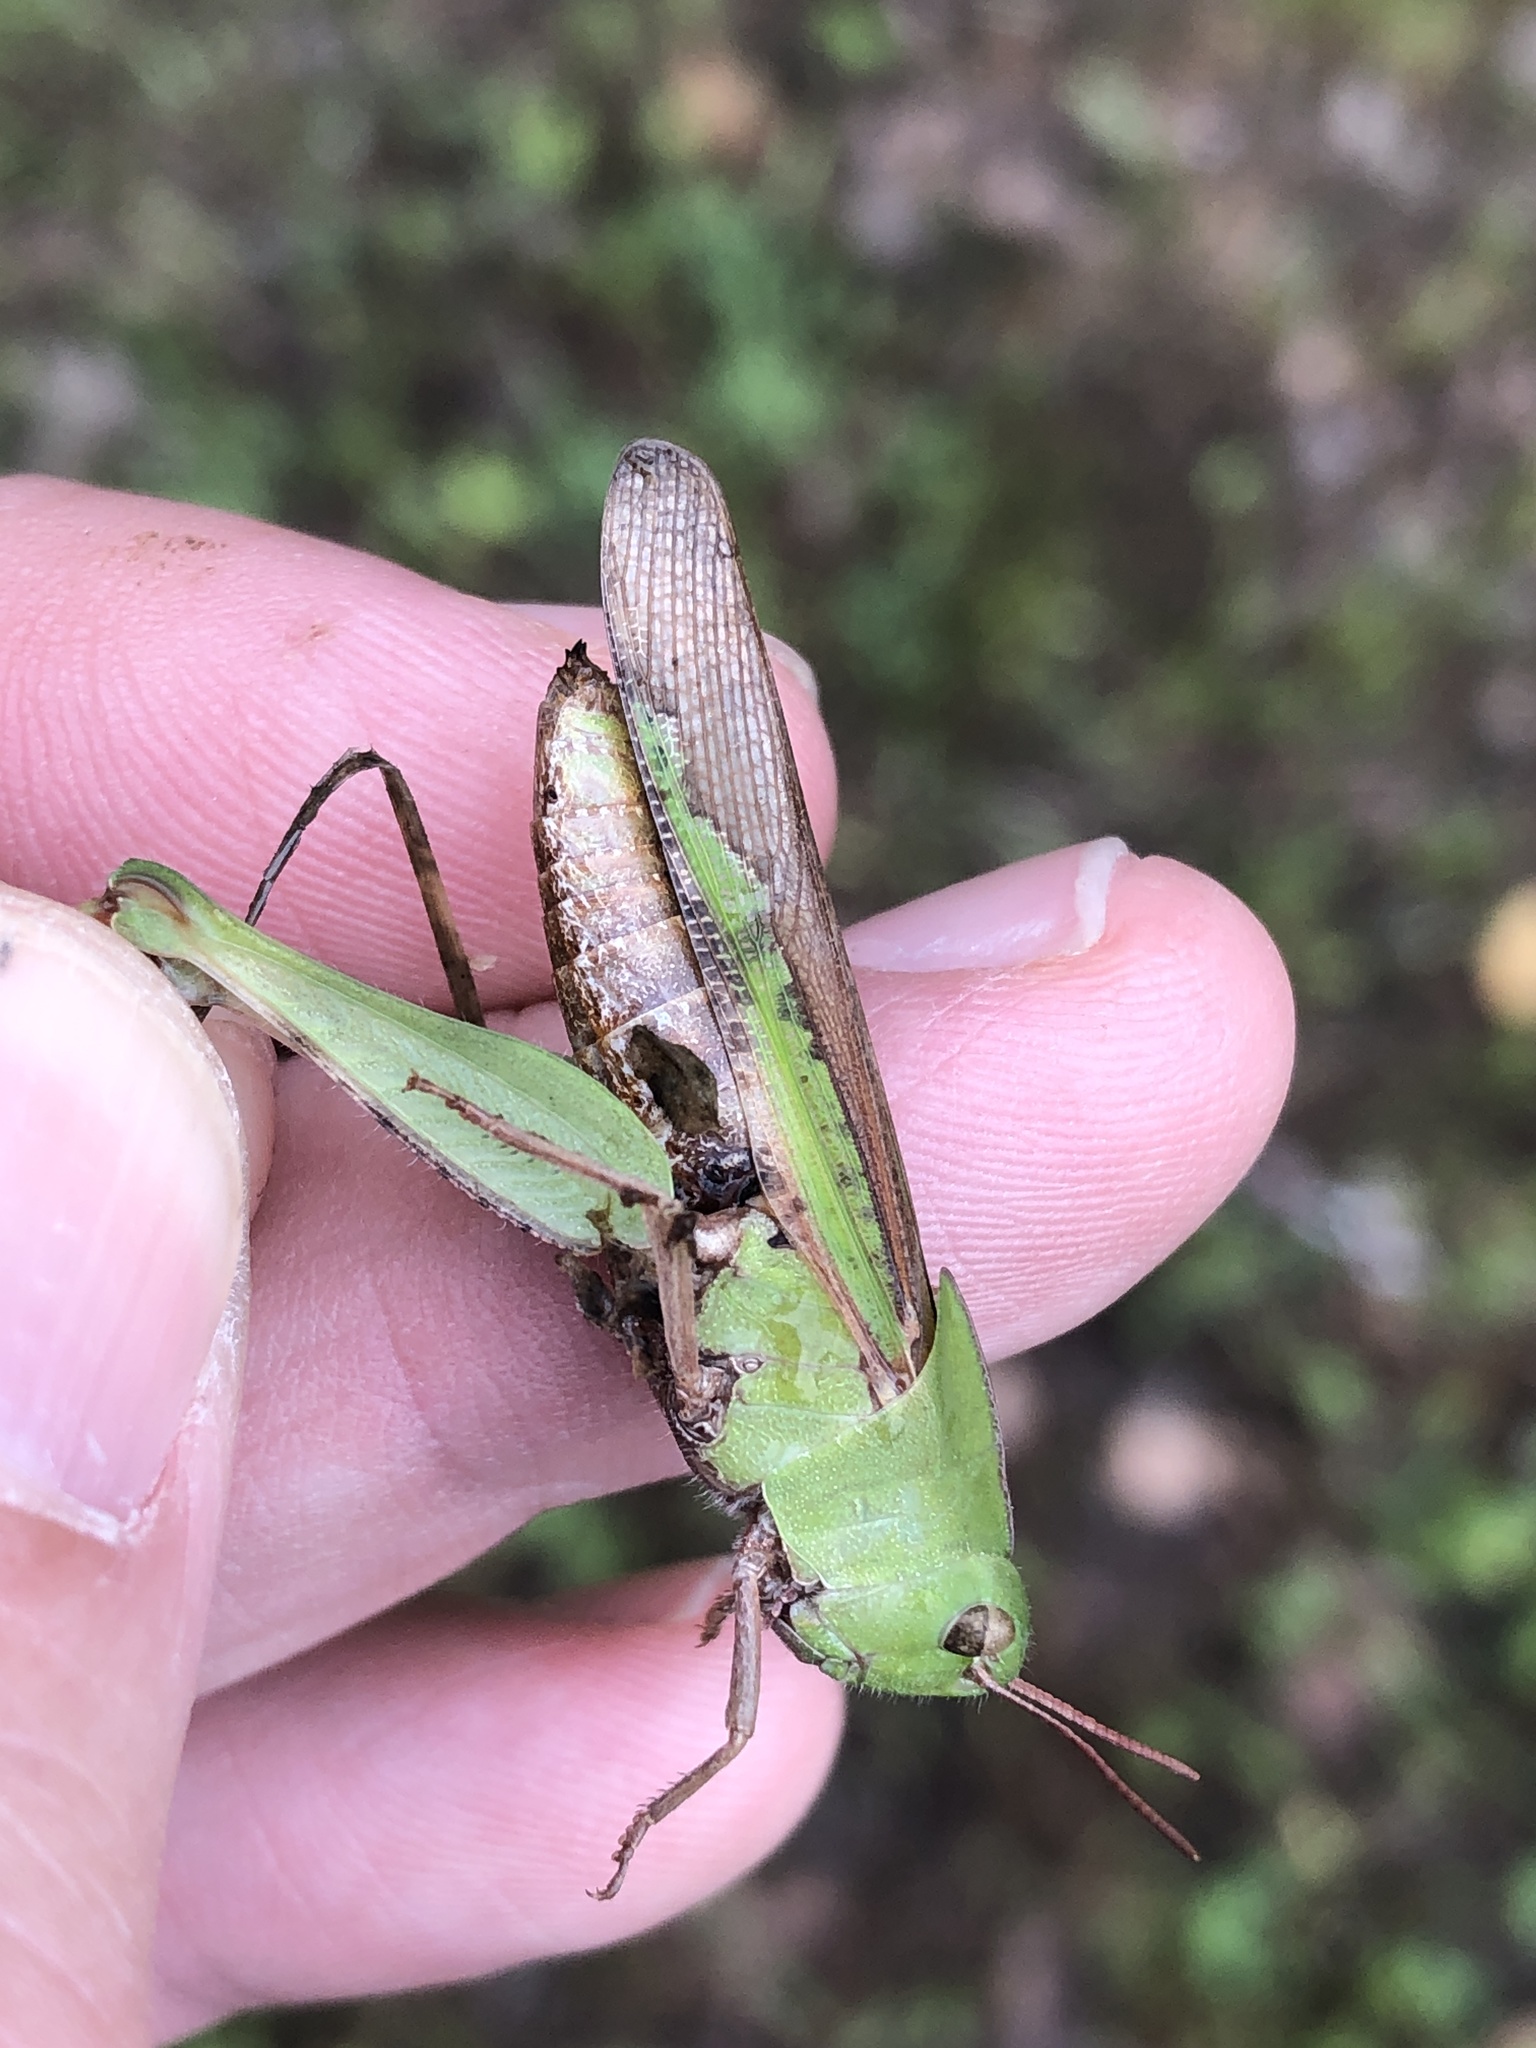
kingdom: Animalia
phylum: Arthropoda
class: Insecta
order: Orthoptera
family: Acrididae
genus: Chortophaga
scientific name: Chortophaga viridifasciata
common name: Green-striped grasshopper
